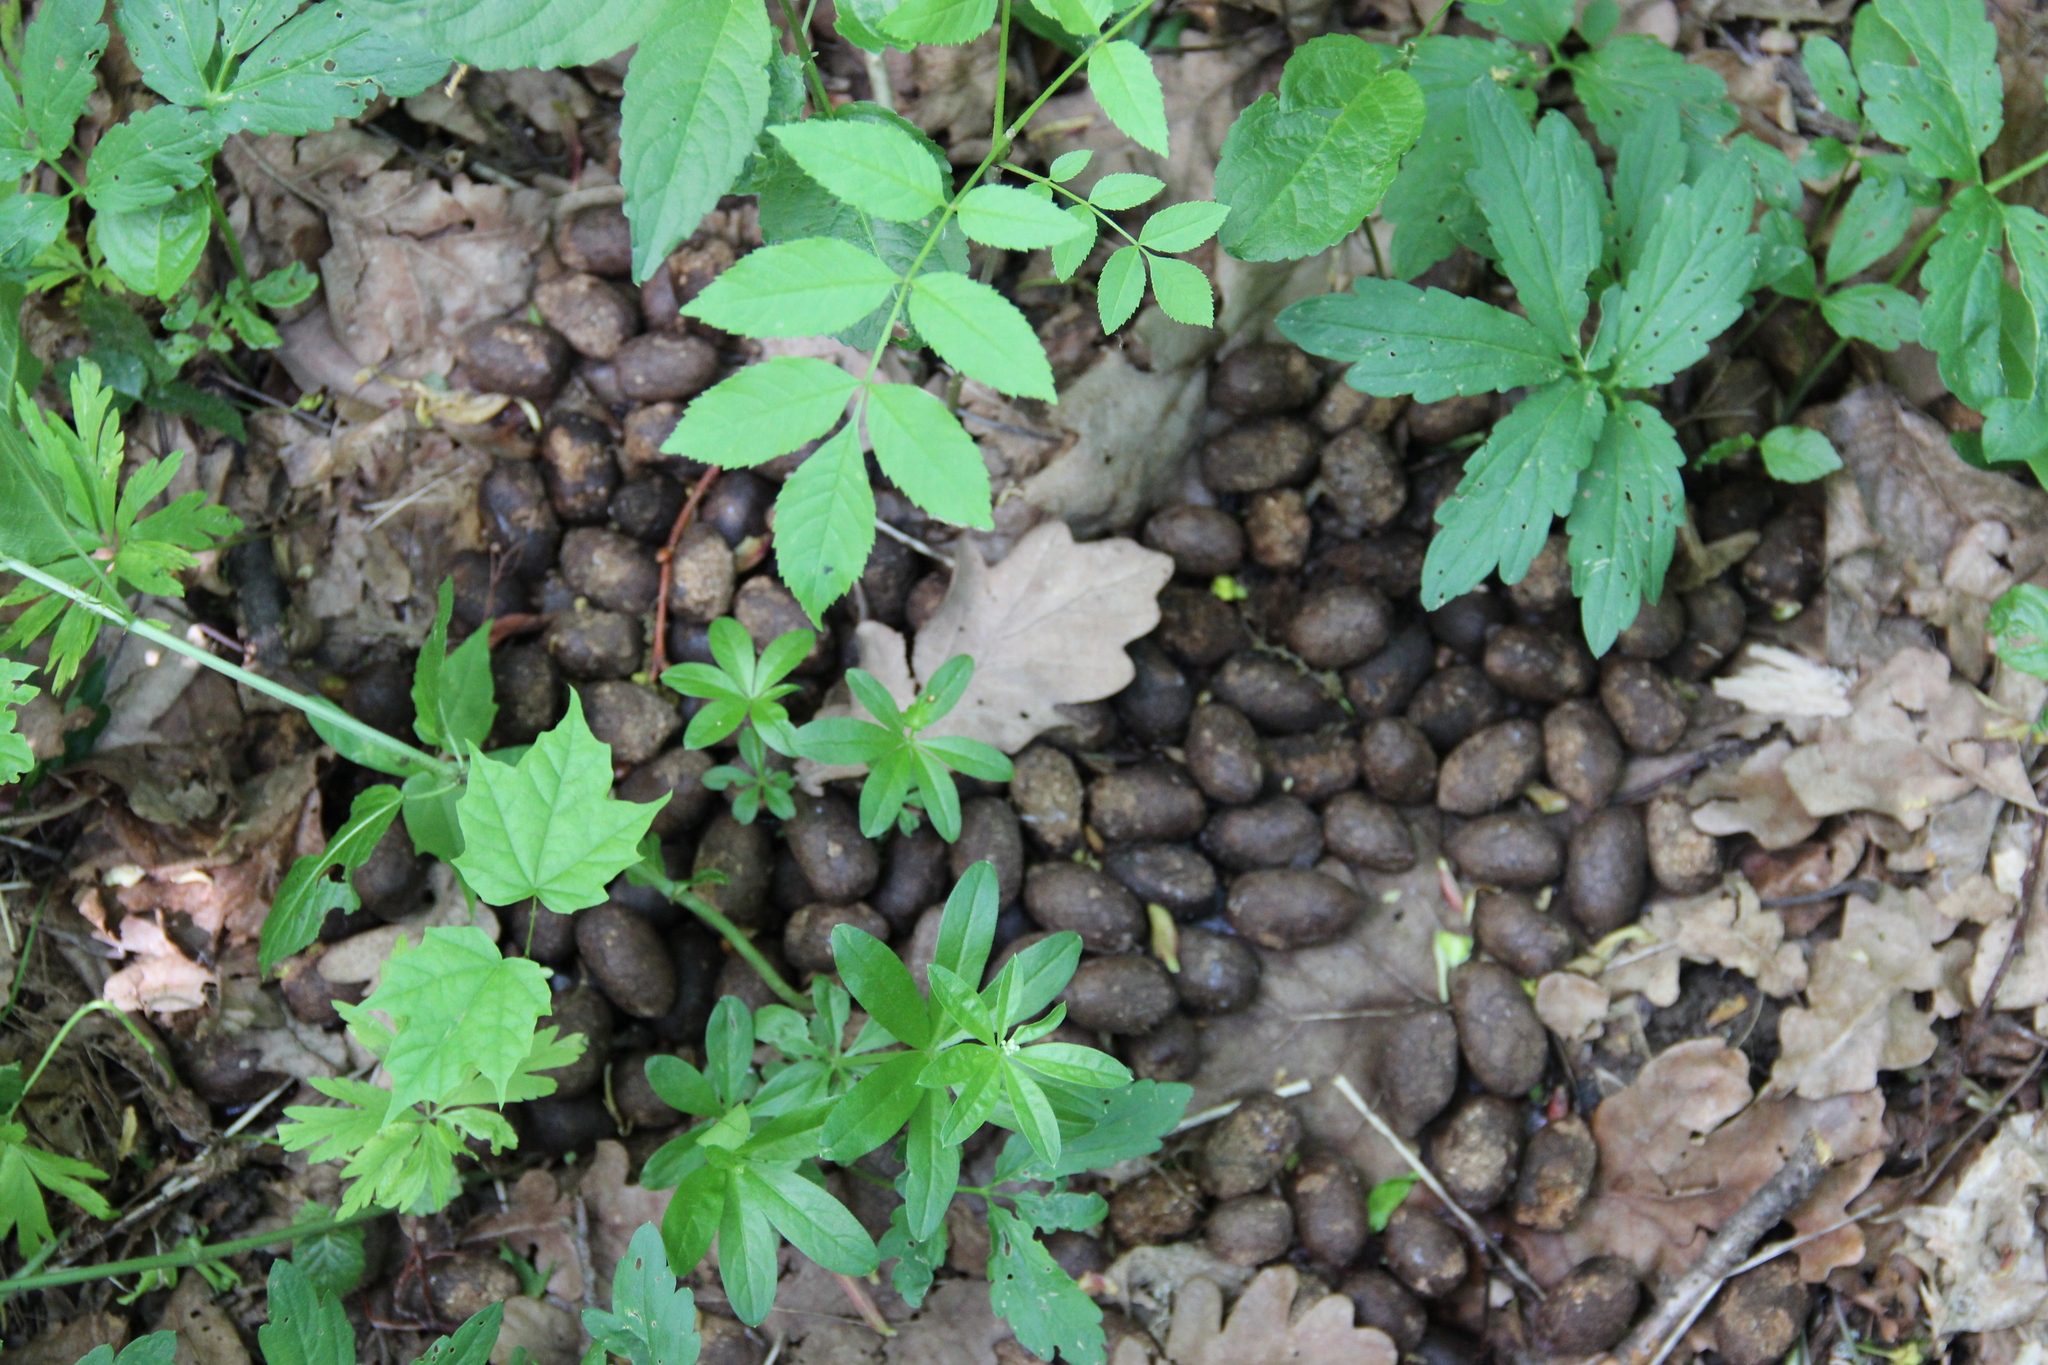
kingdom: Animalia
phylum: Chordata
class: Mammalia
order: Artiodactyla
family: Cervidae
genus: Alces
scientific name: Alces alces
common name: Moose
